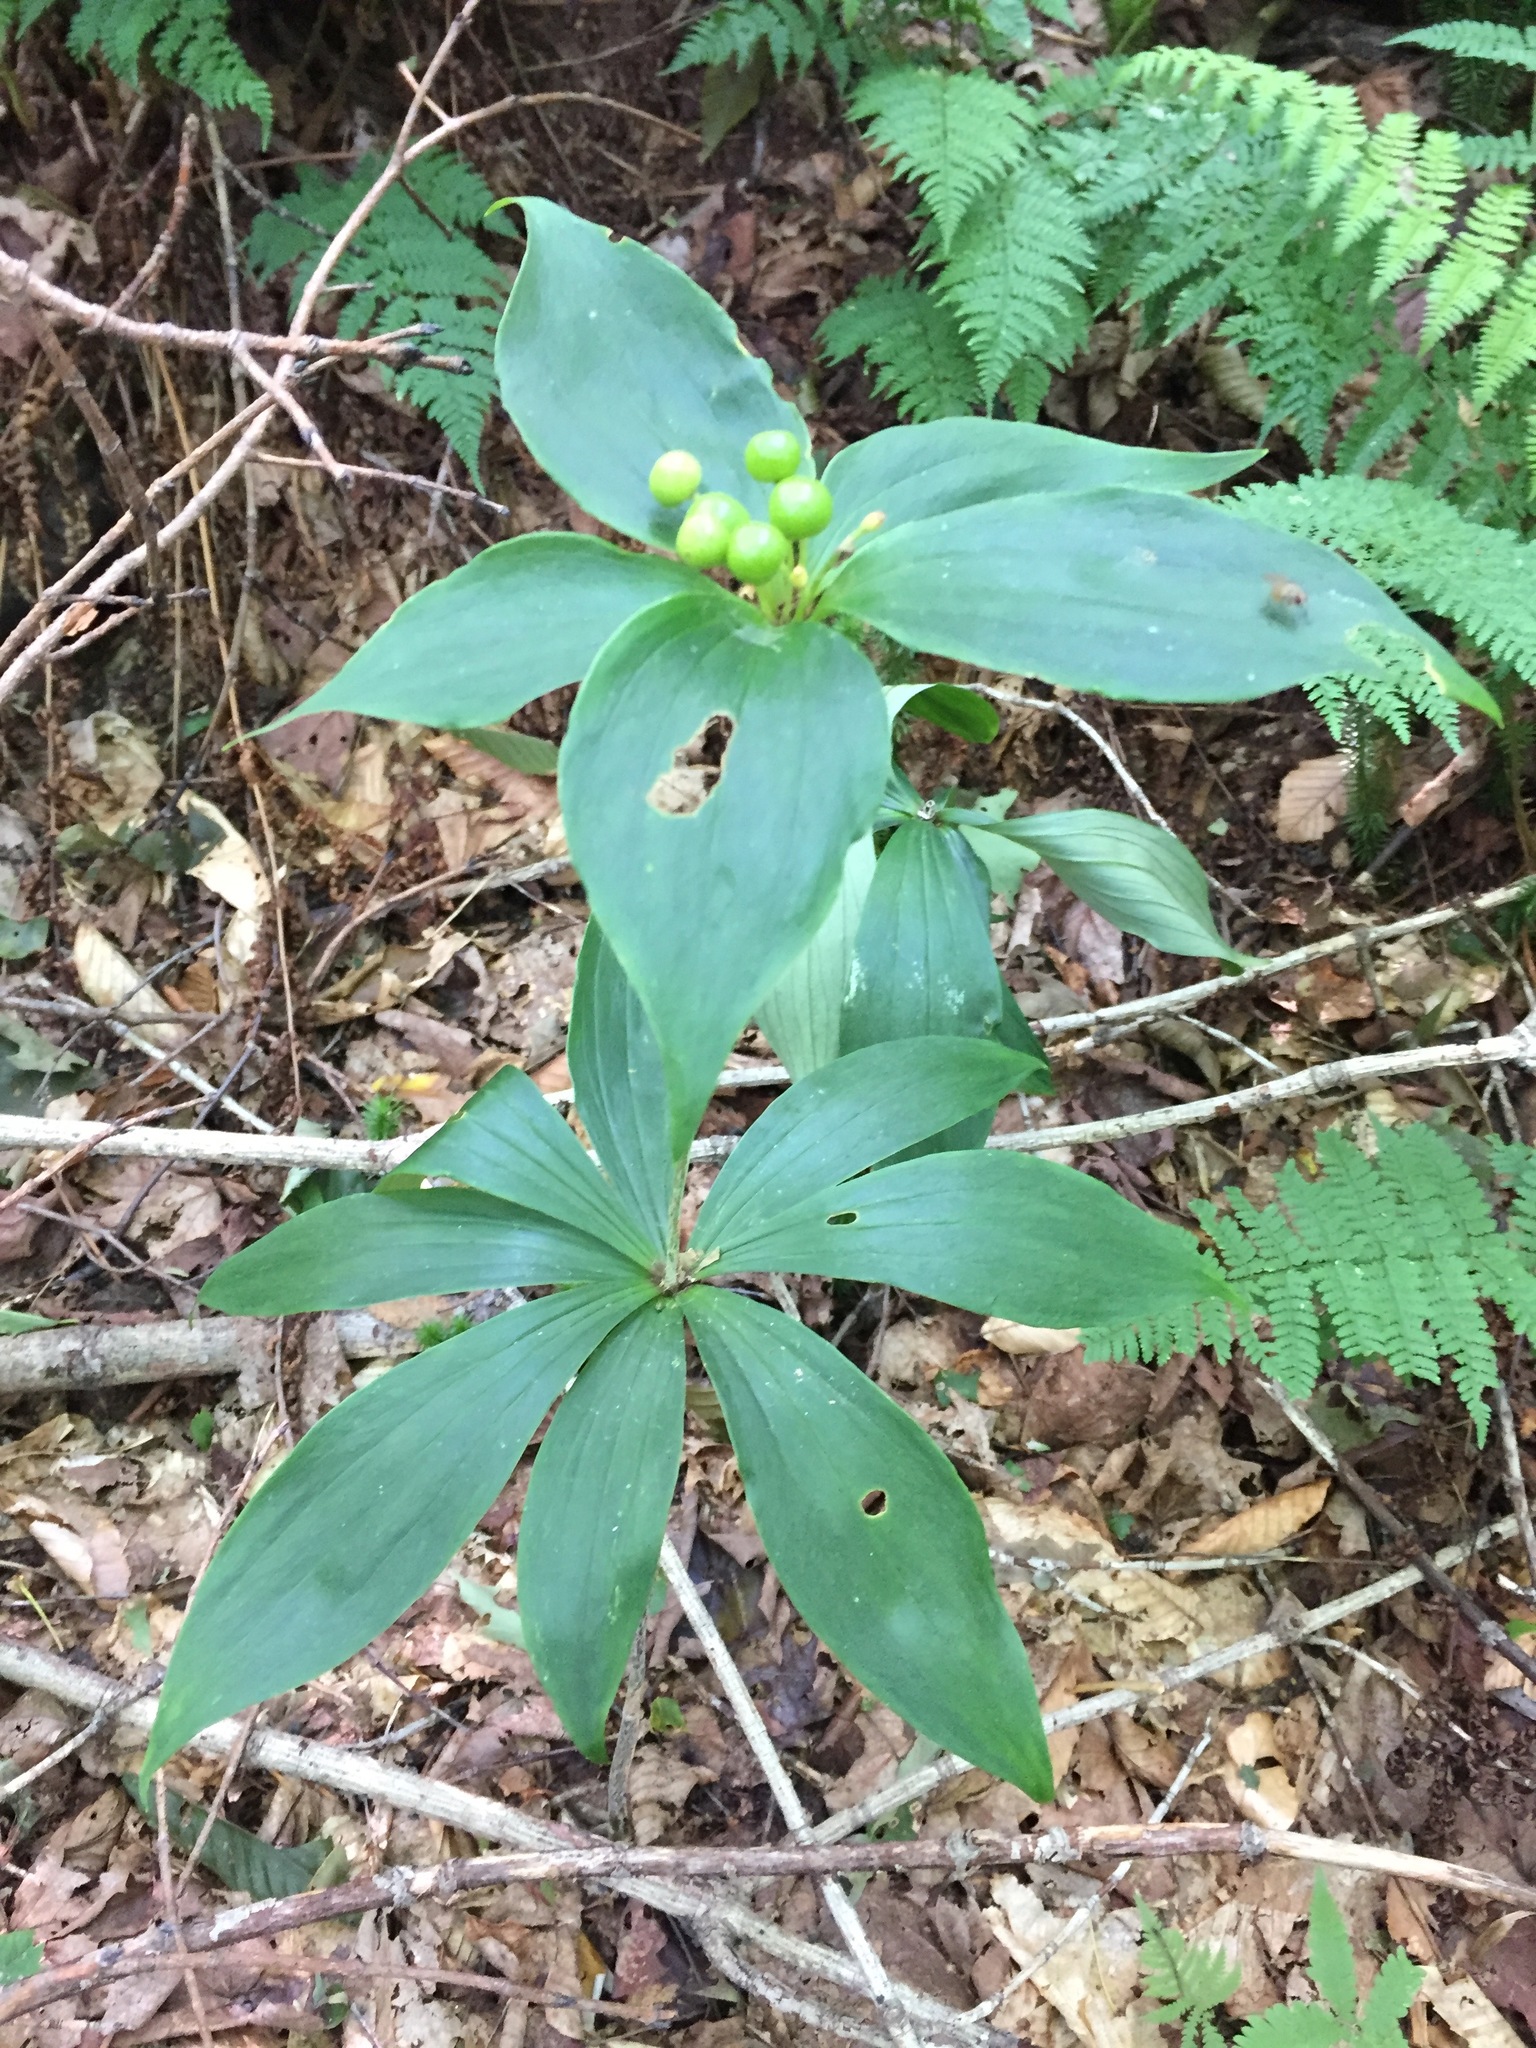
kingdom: Plantae
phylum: Tracheophyta
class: Liliopsida
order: Liliales
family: Liliaceae
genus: Medeola
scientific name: Medeola virginiana
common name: Indian cucumber-root
